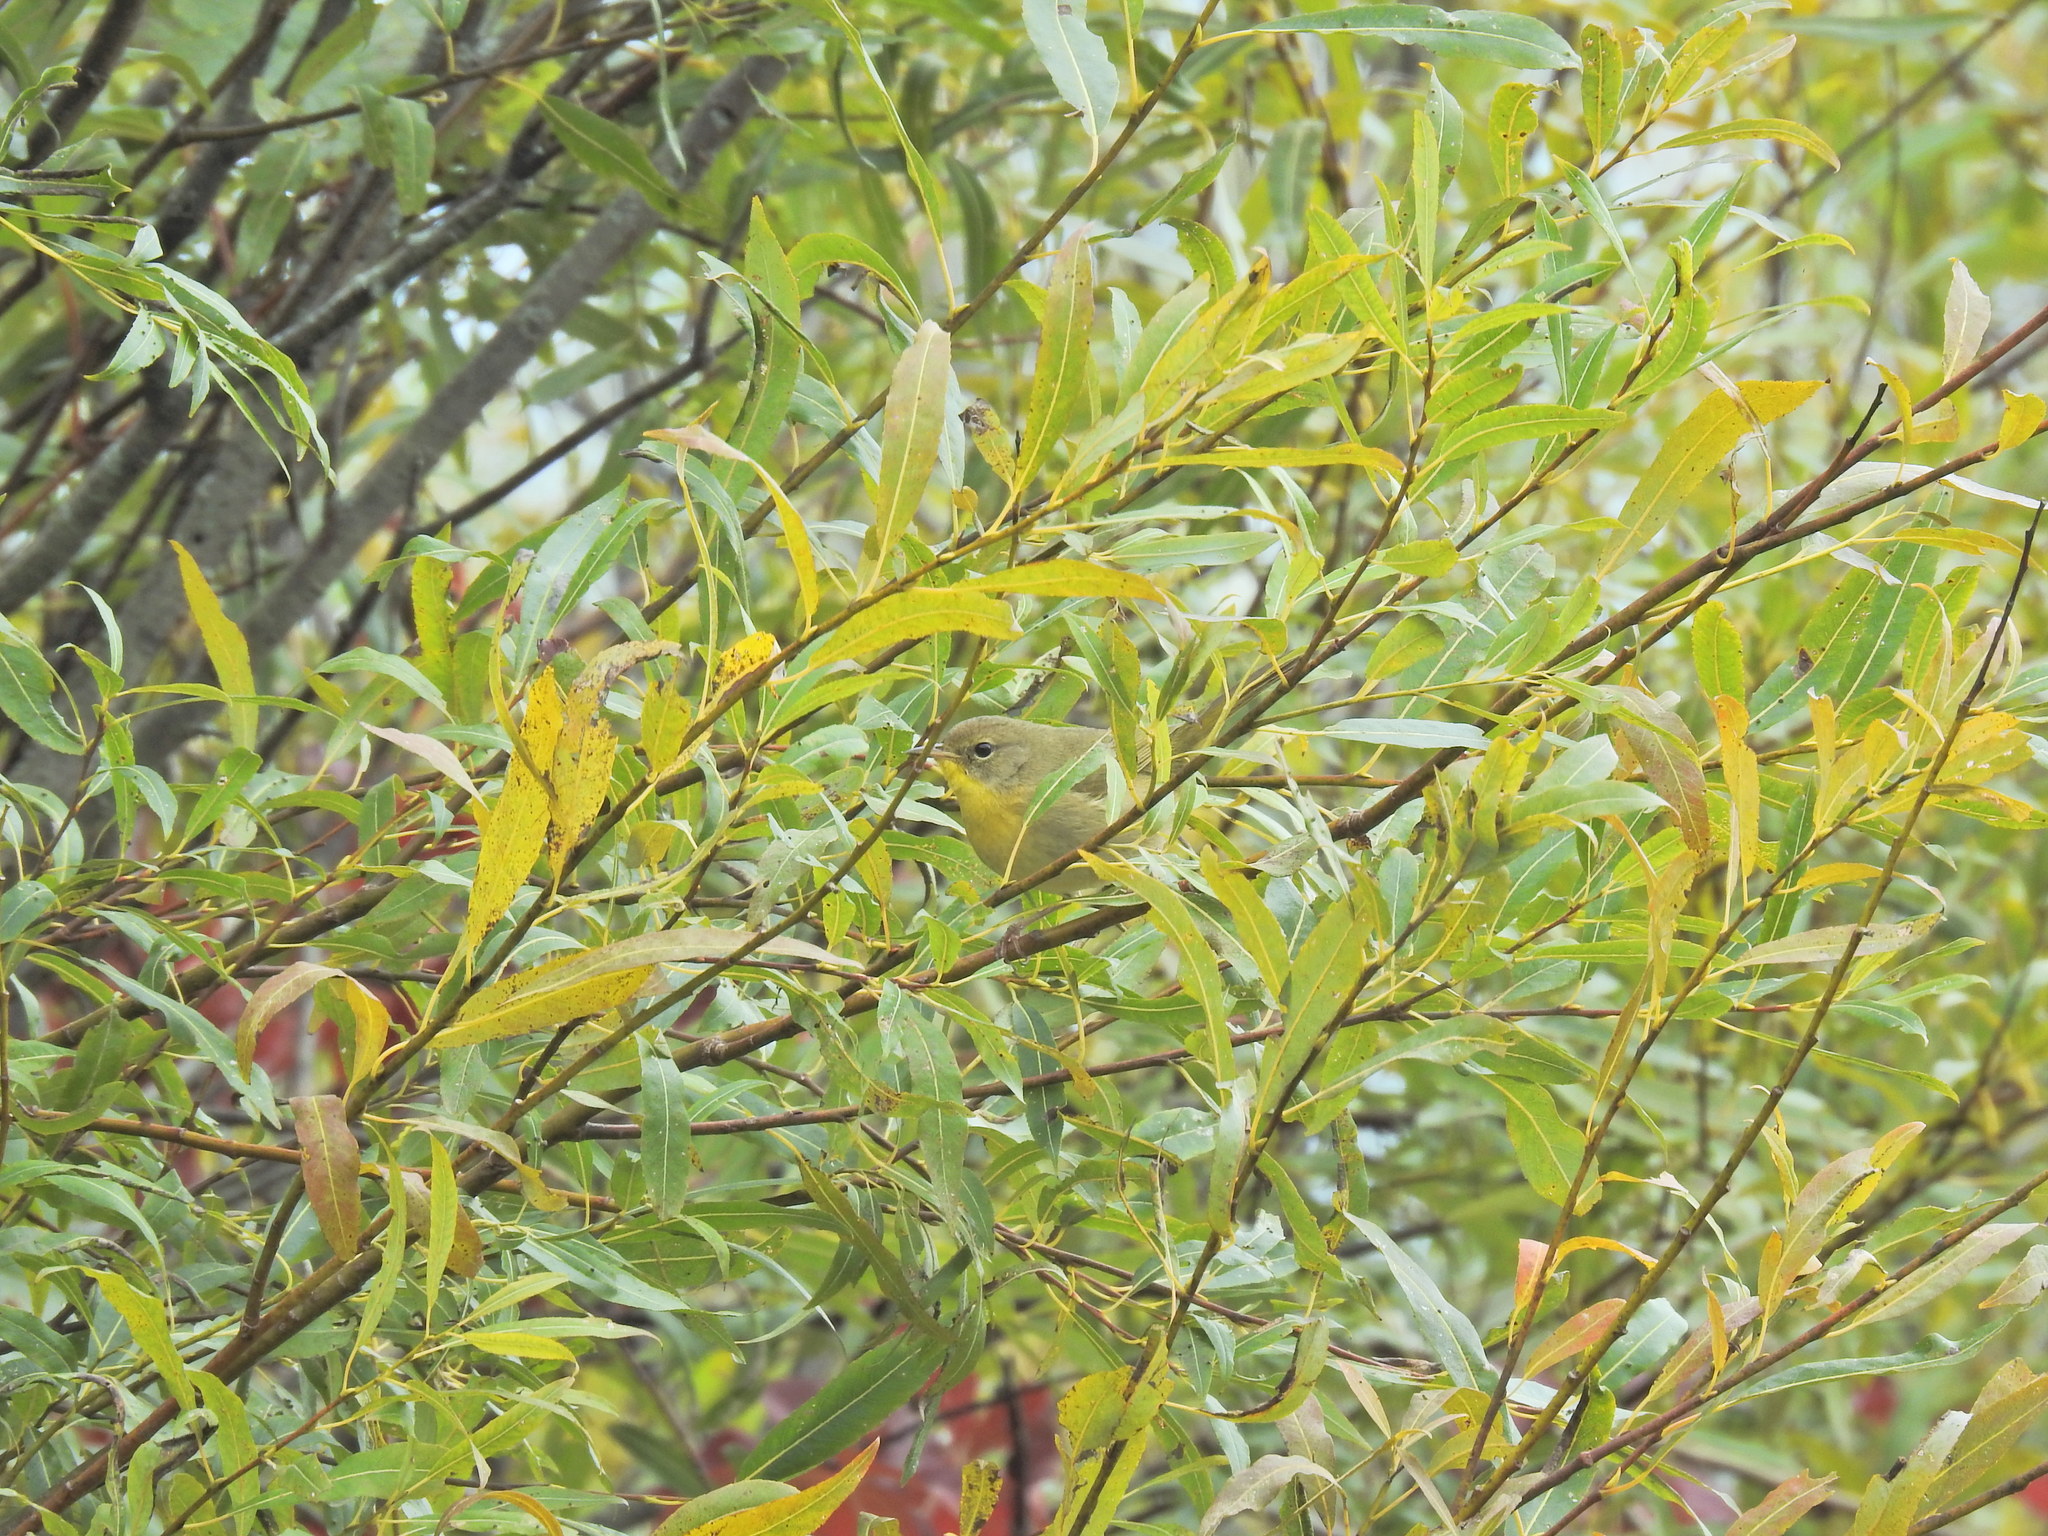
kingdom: Animalia
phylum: Chordata
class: Aves
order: Passeriformes
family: Parulidae
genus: Geothlypis
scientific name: Geothlypis trichas
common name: Common yellowthroat
